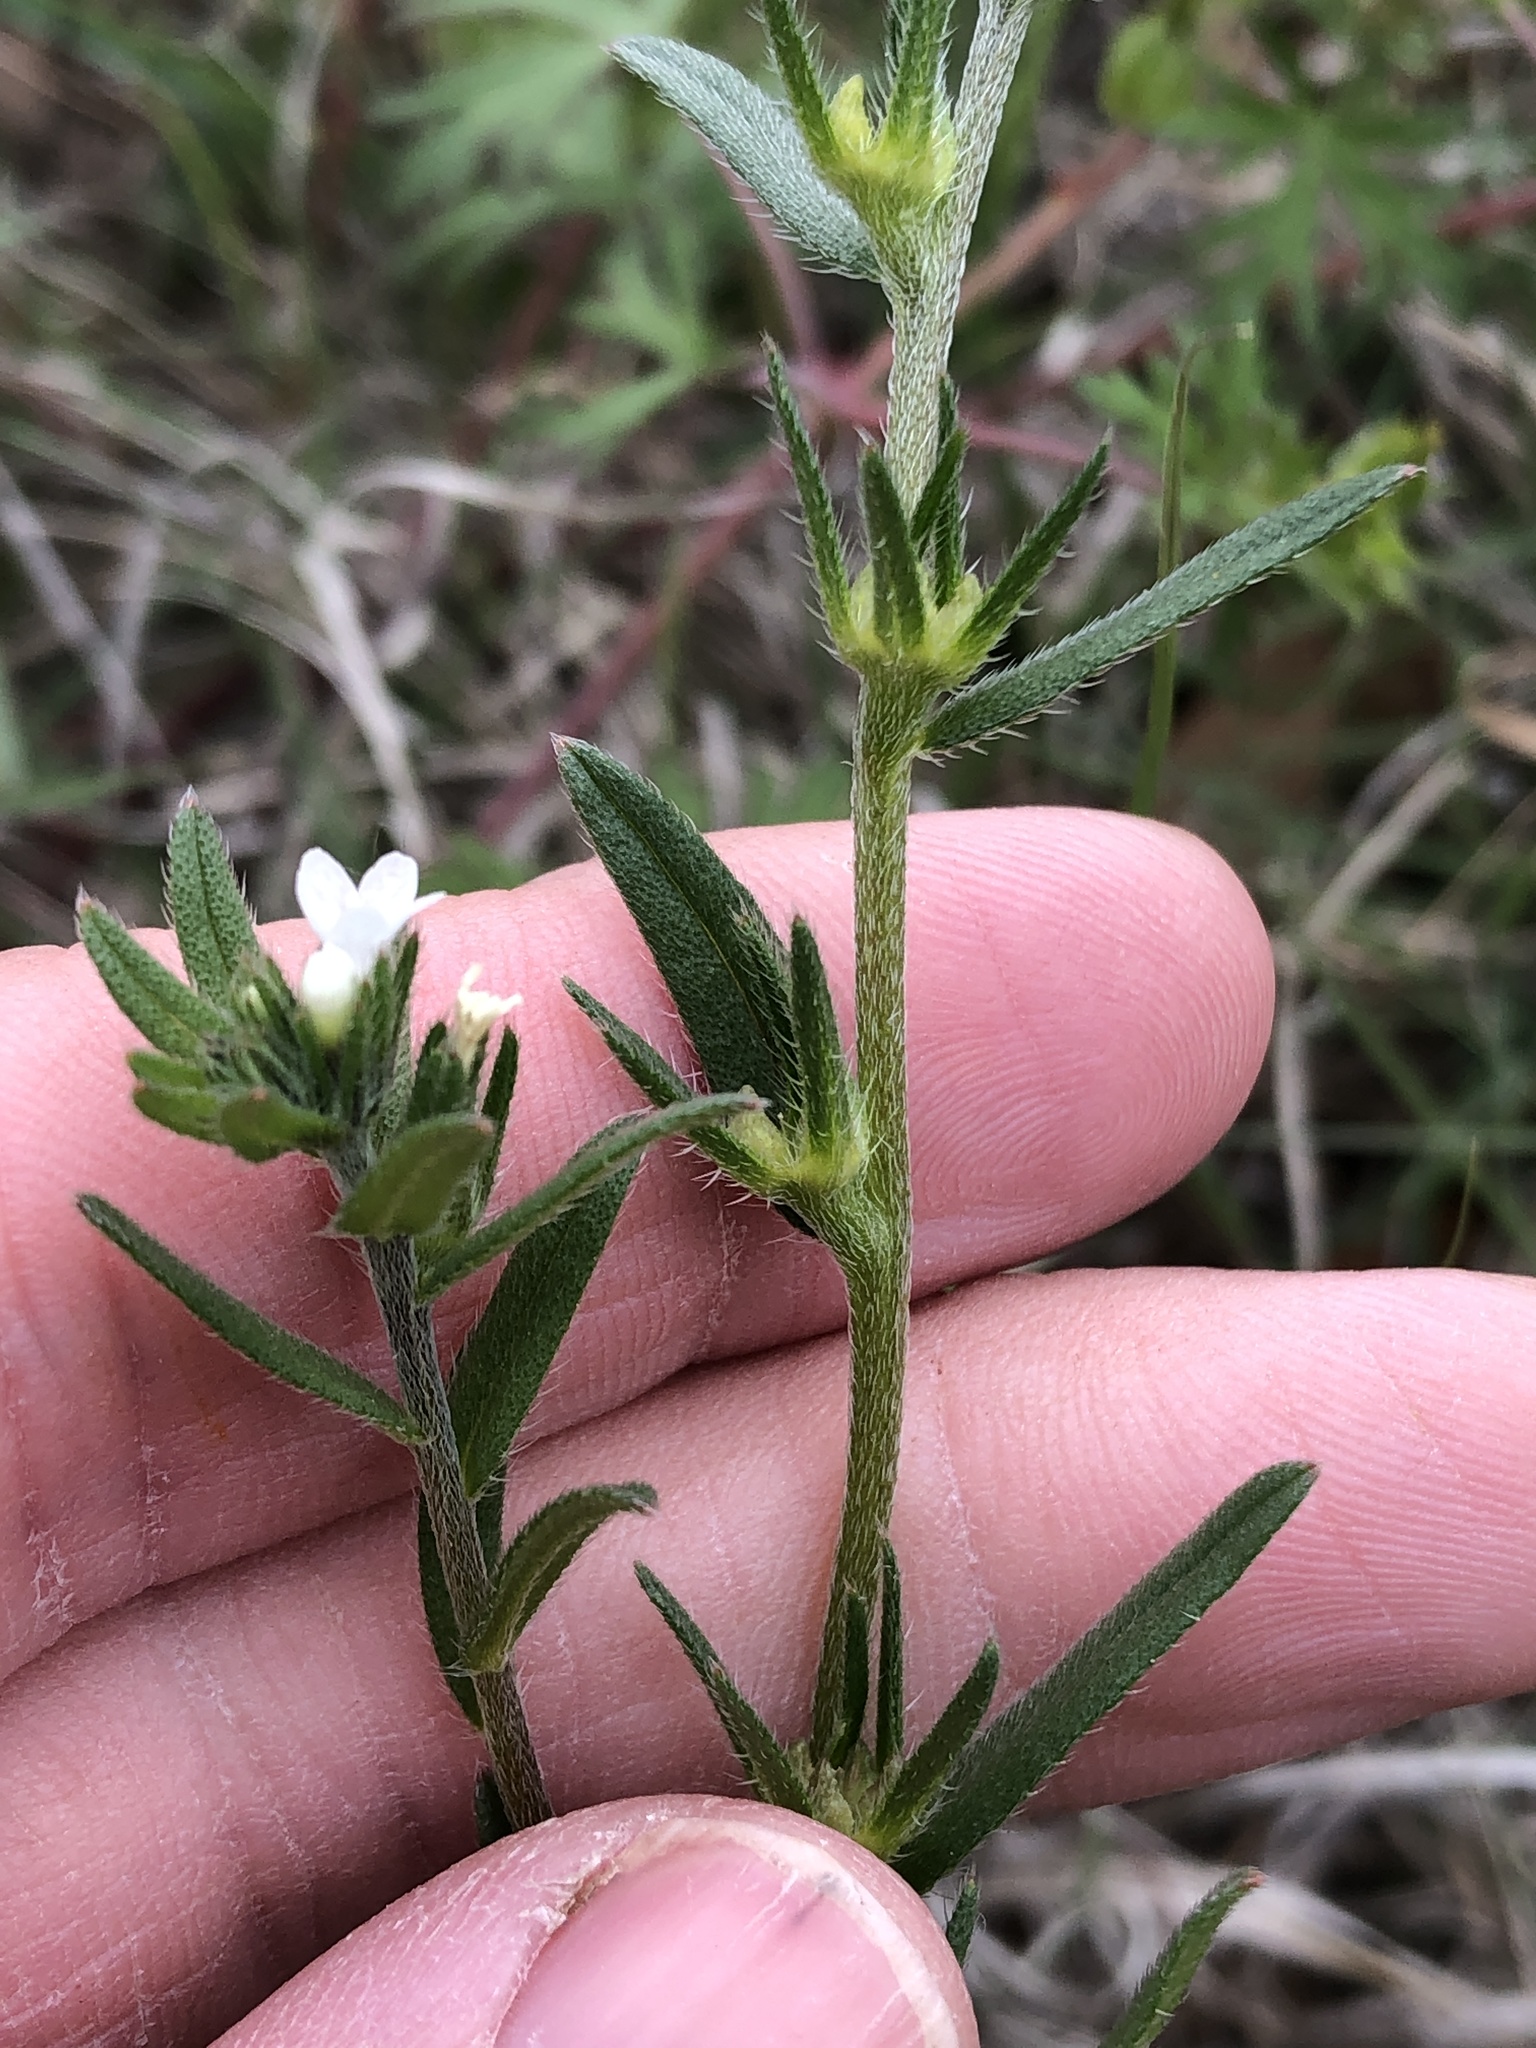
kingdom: Plantae
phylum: Tracheophyta
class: Magnoliopsida
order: Boraginales
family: Boraginaceae
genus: Buglossoides
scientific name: Buglossoides arvensis
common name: Corn gromwell
